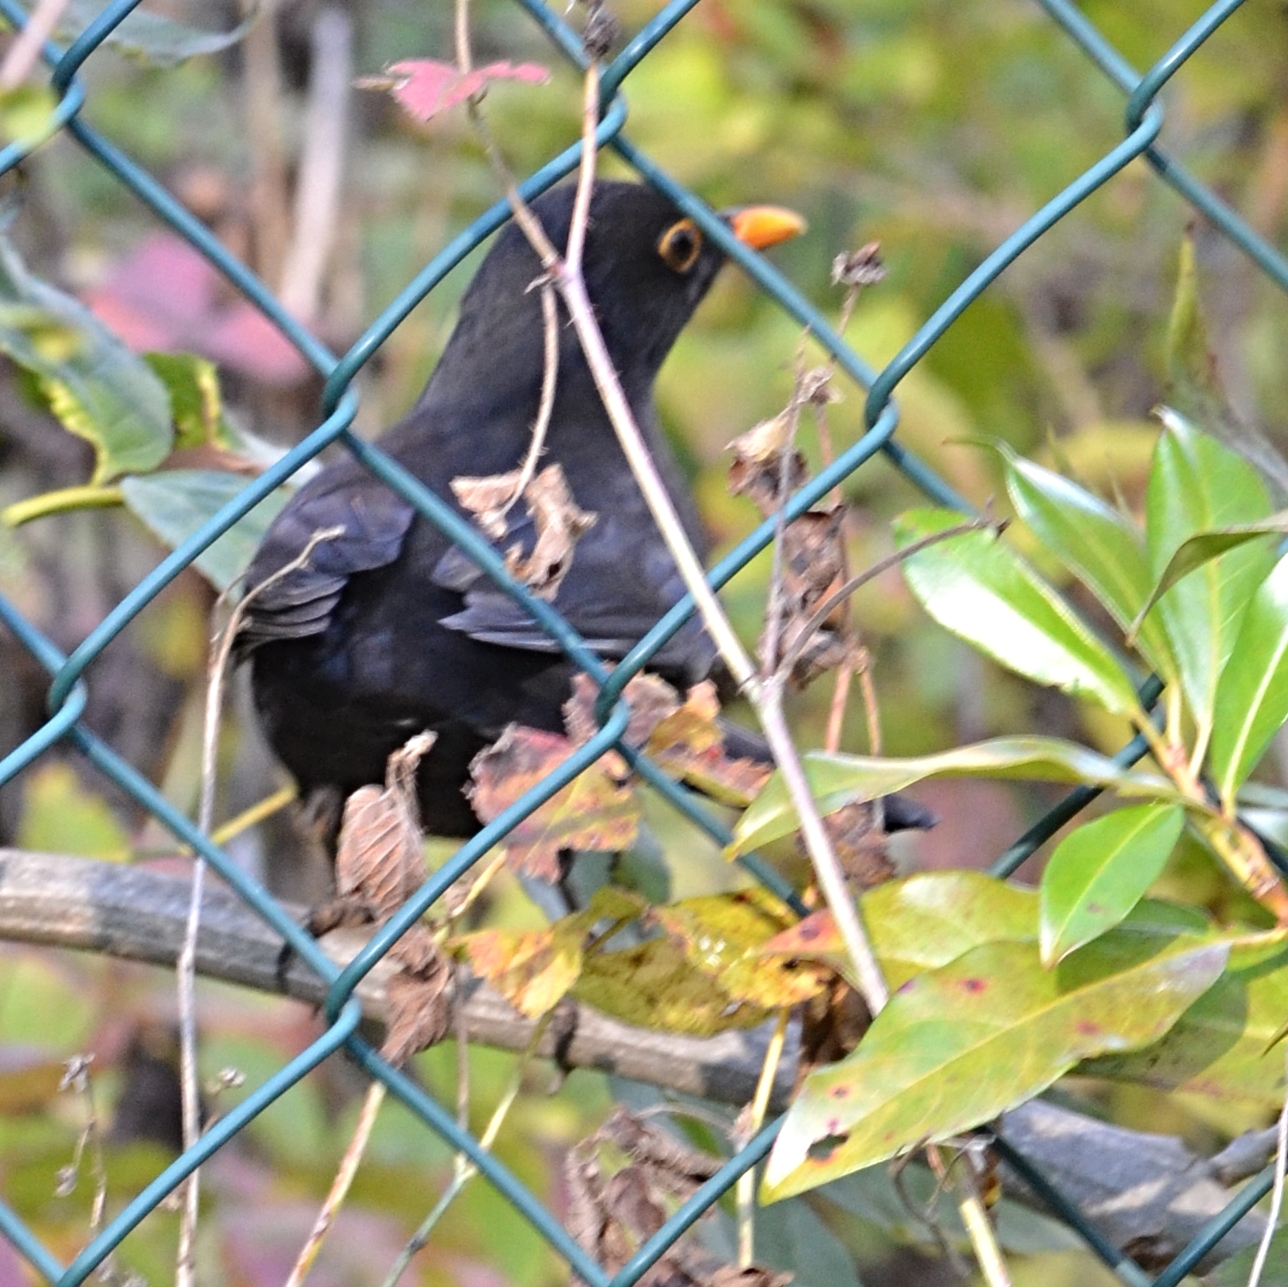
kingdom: Animalia
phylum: Chordata
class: Aves
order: Passeriformes
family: Turdidae
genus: Turdus
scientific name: Turdus merula
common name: Common blackbird
